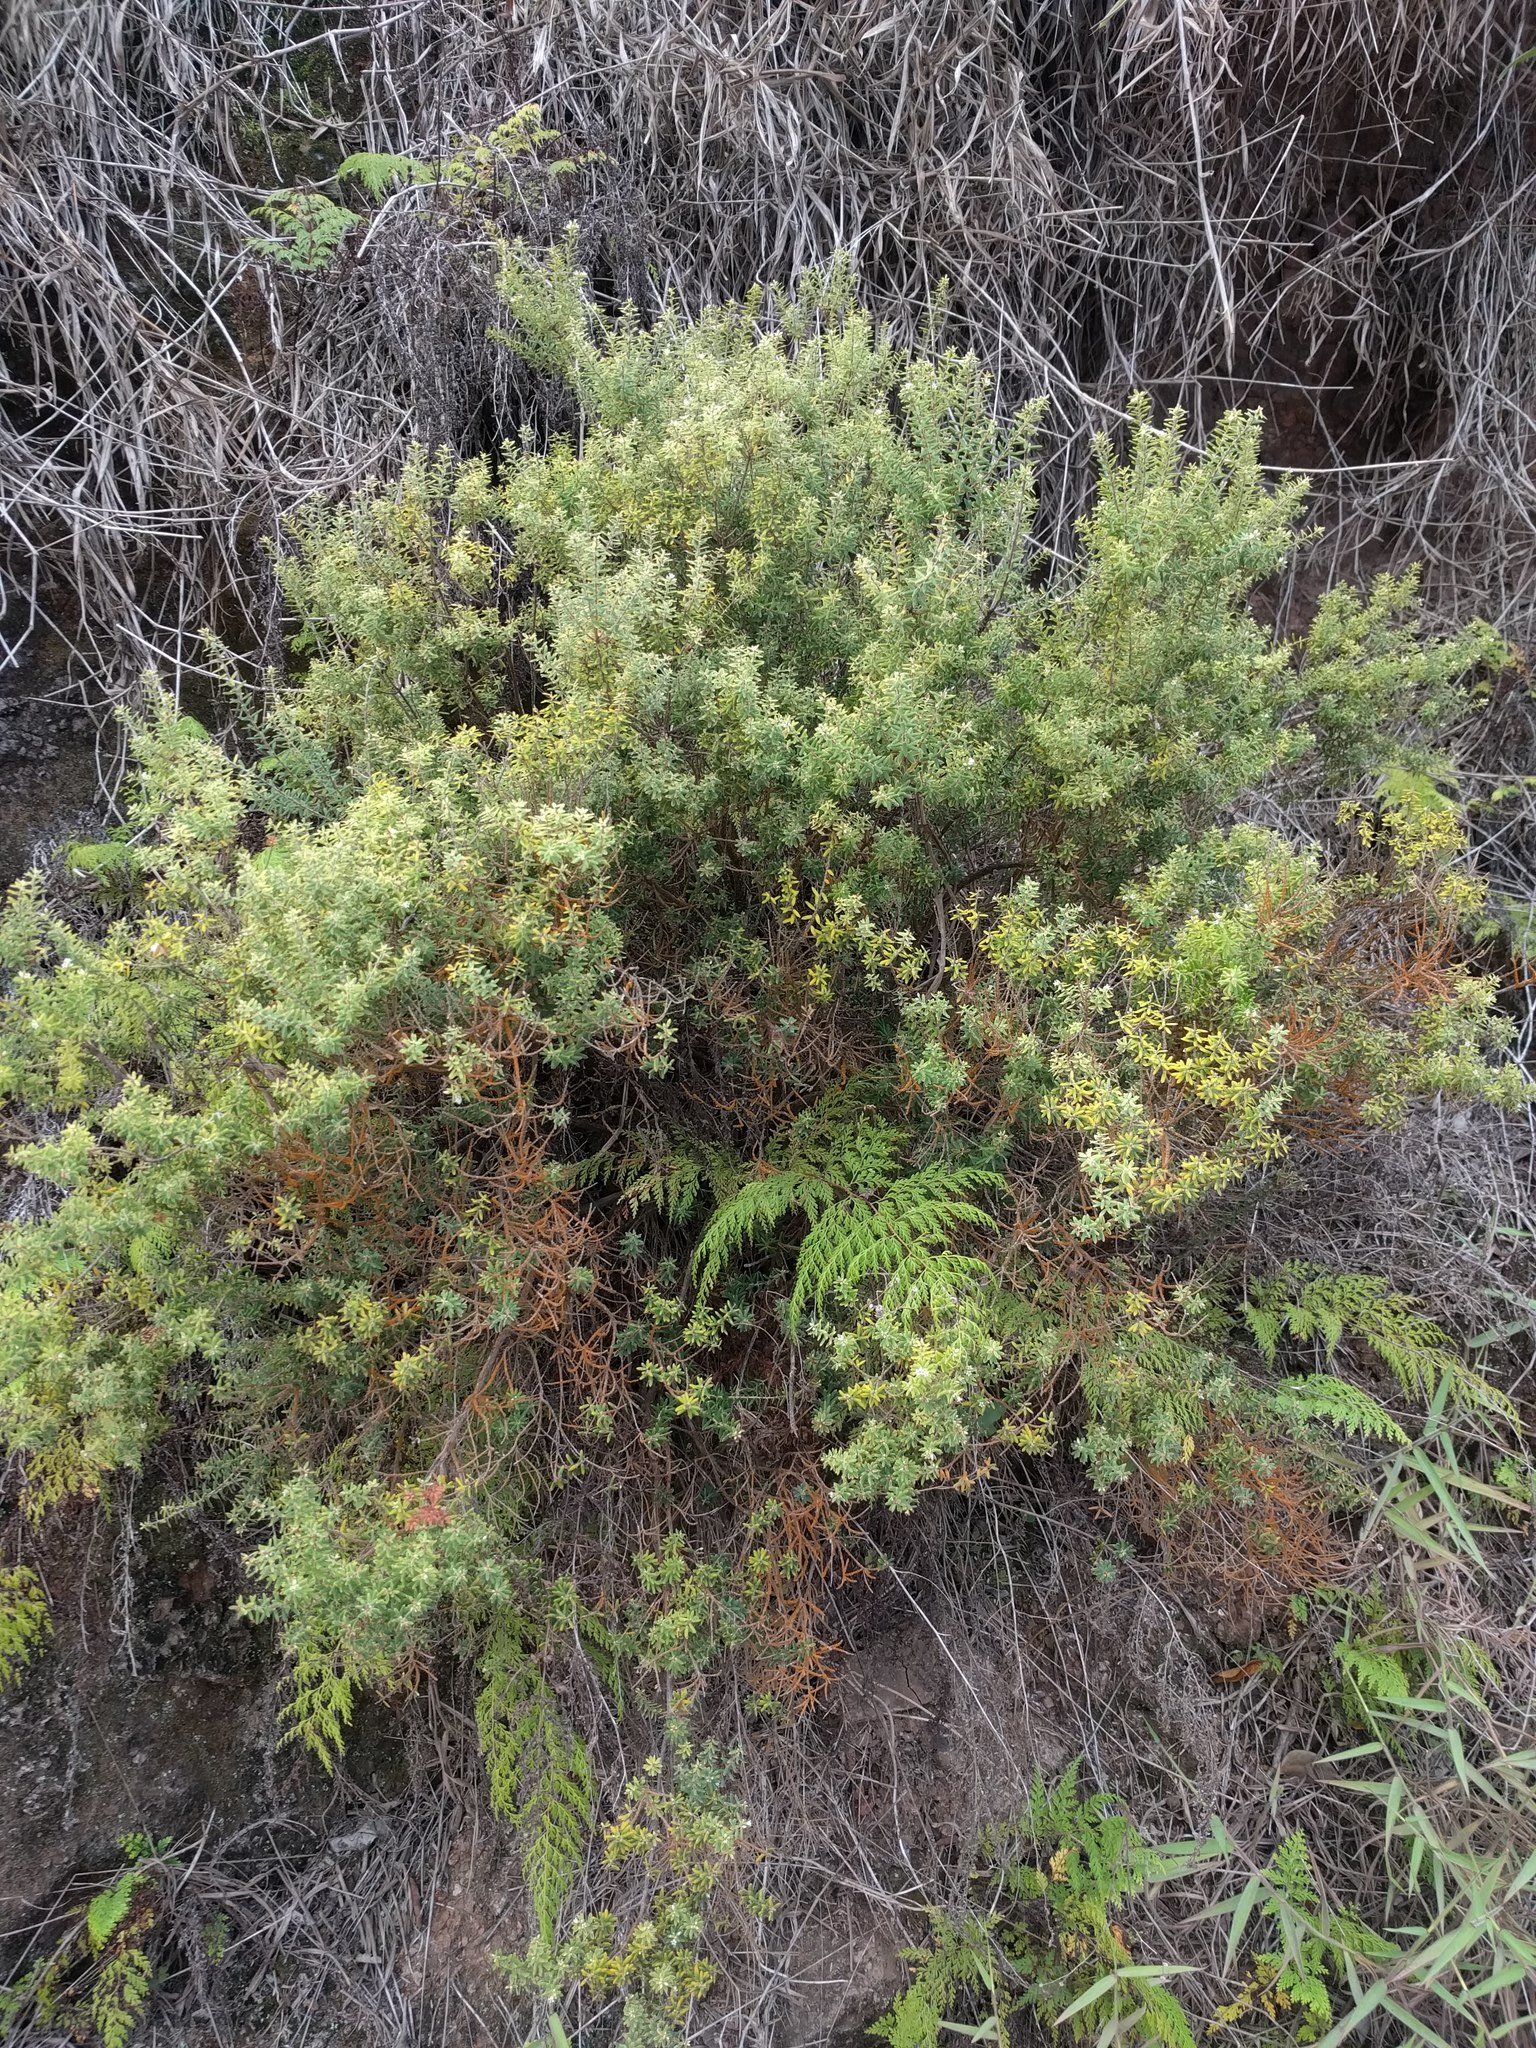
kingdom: Plantae
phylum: Tracheophyta
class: Magnoliopsida
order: Ericales
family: Ericaceae
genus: Leptecophylla
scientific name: Leptecophylla tameiameiae
